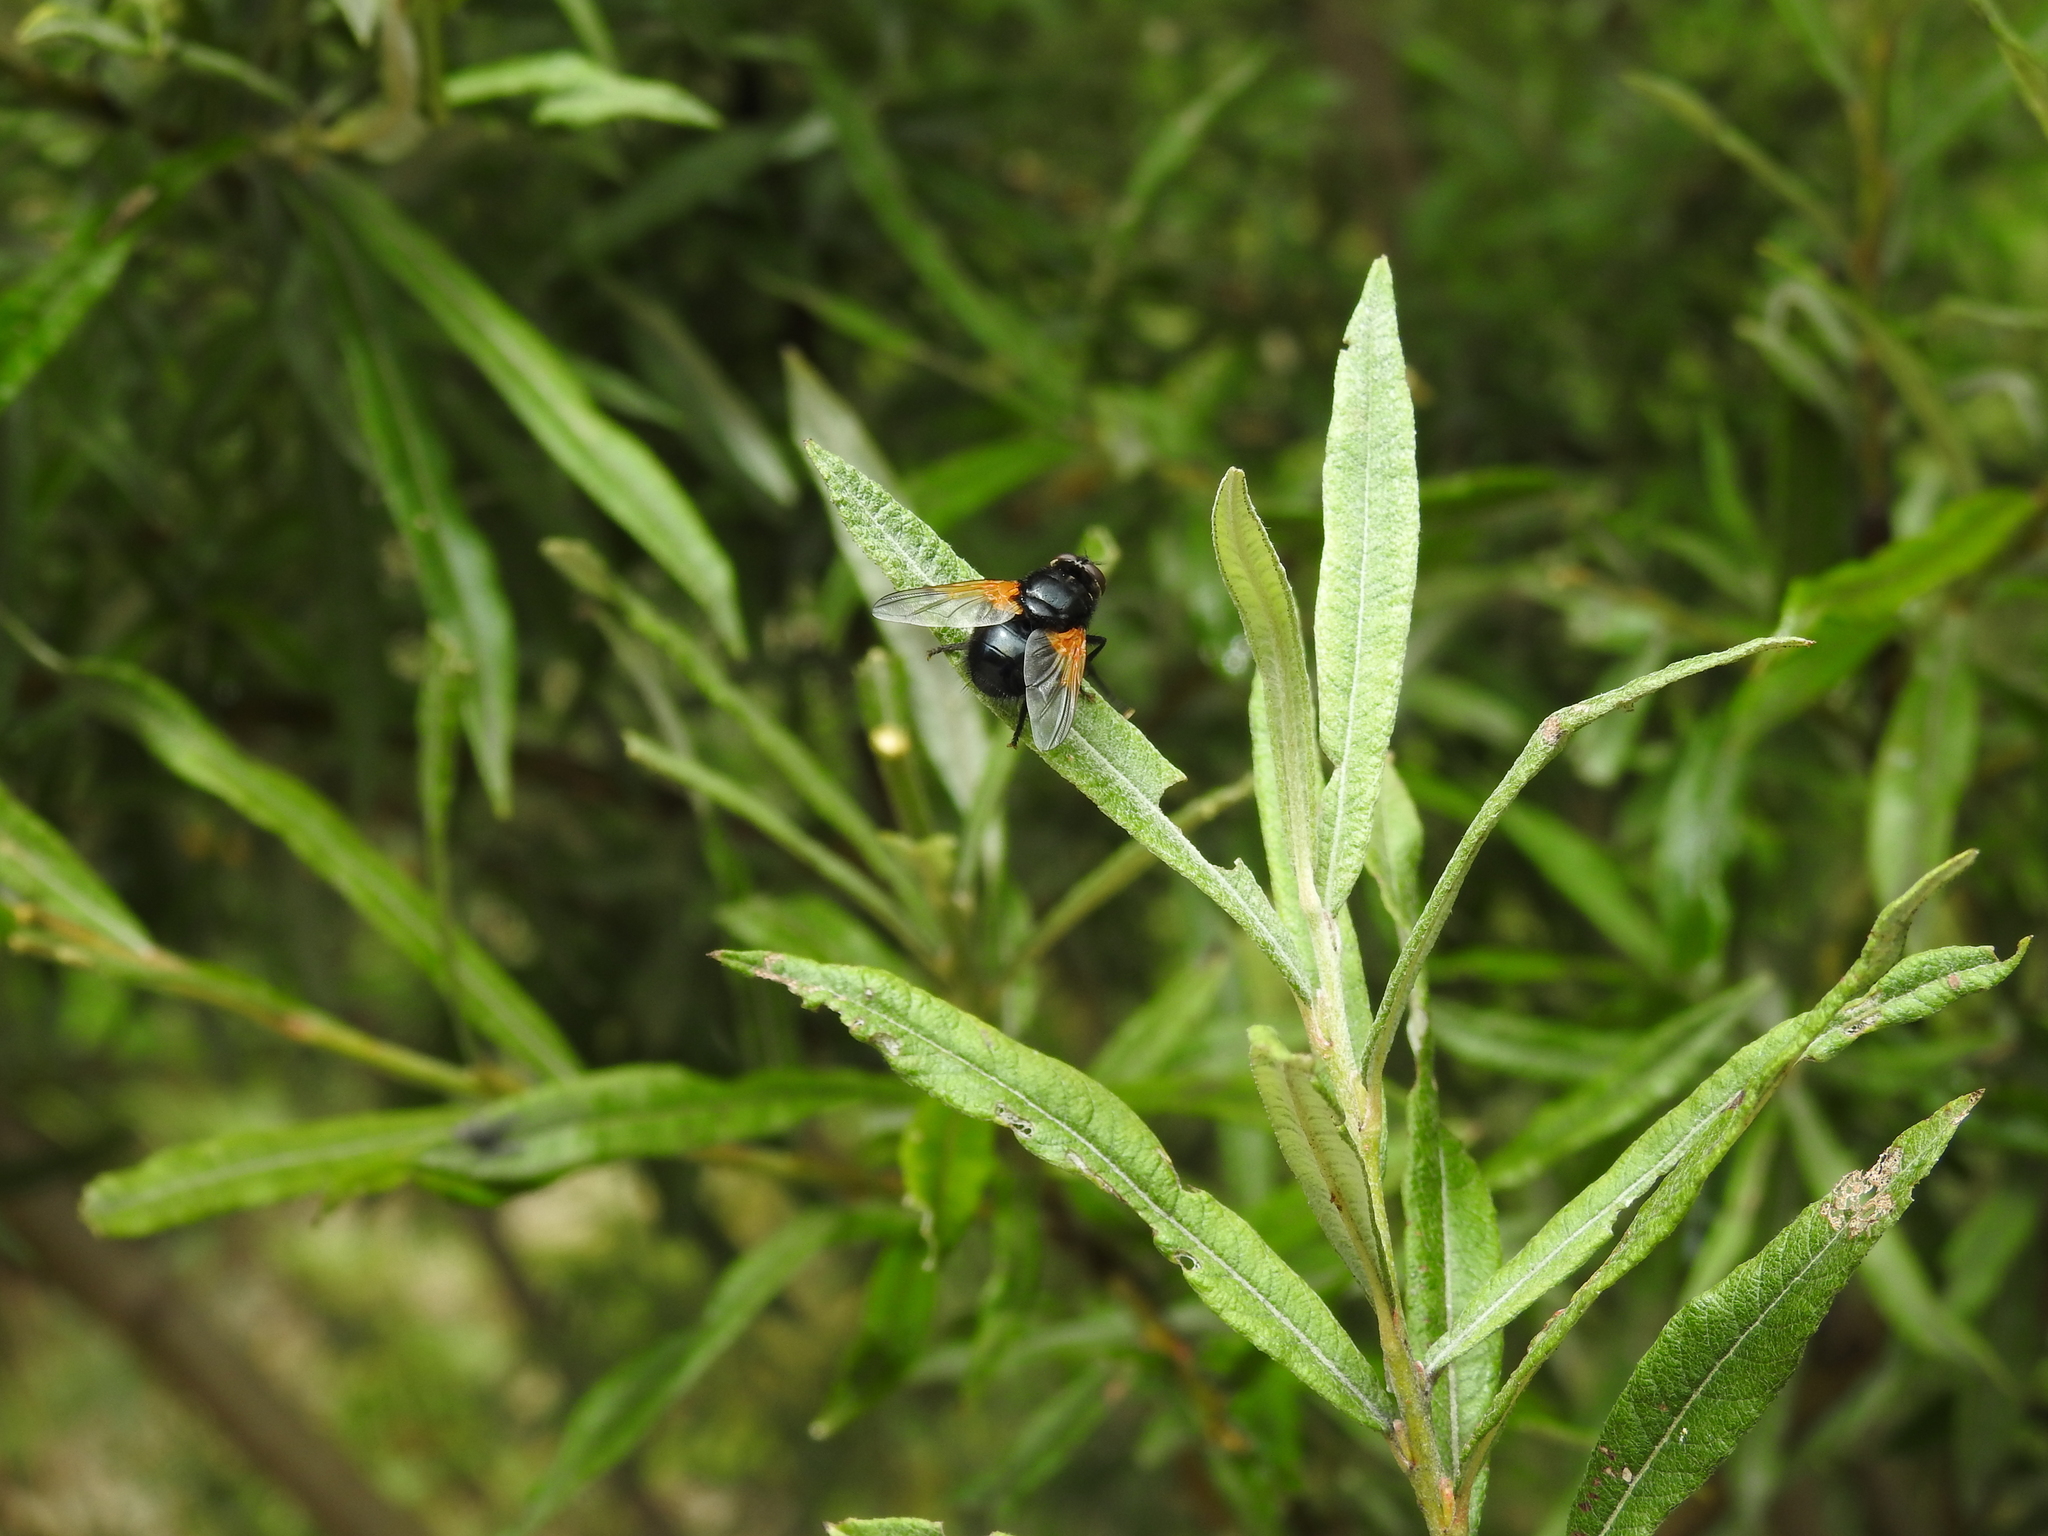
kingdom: Animalia
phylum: Arthropoda
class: Insecta
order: Diptera
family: Muscidae
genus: Mesembrina
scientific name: Mesembrina meridiana
